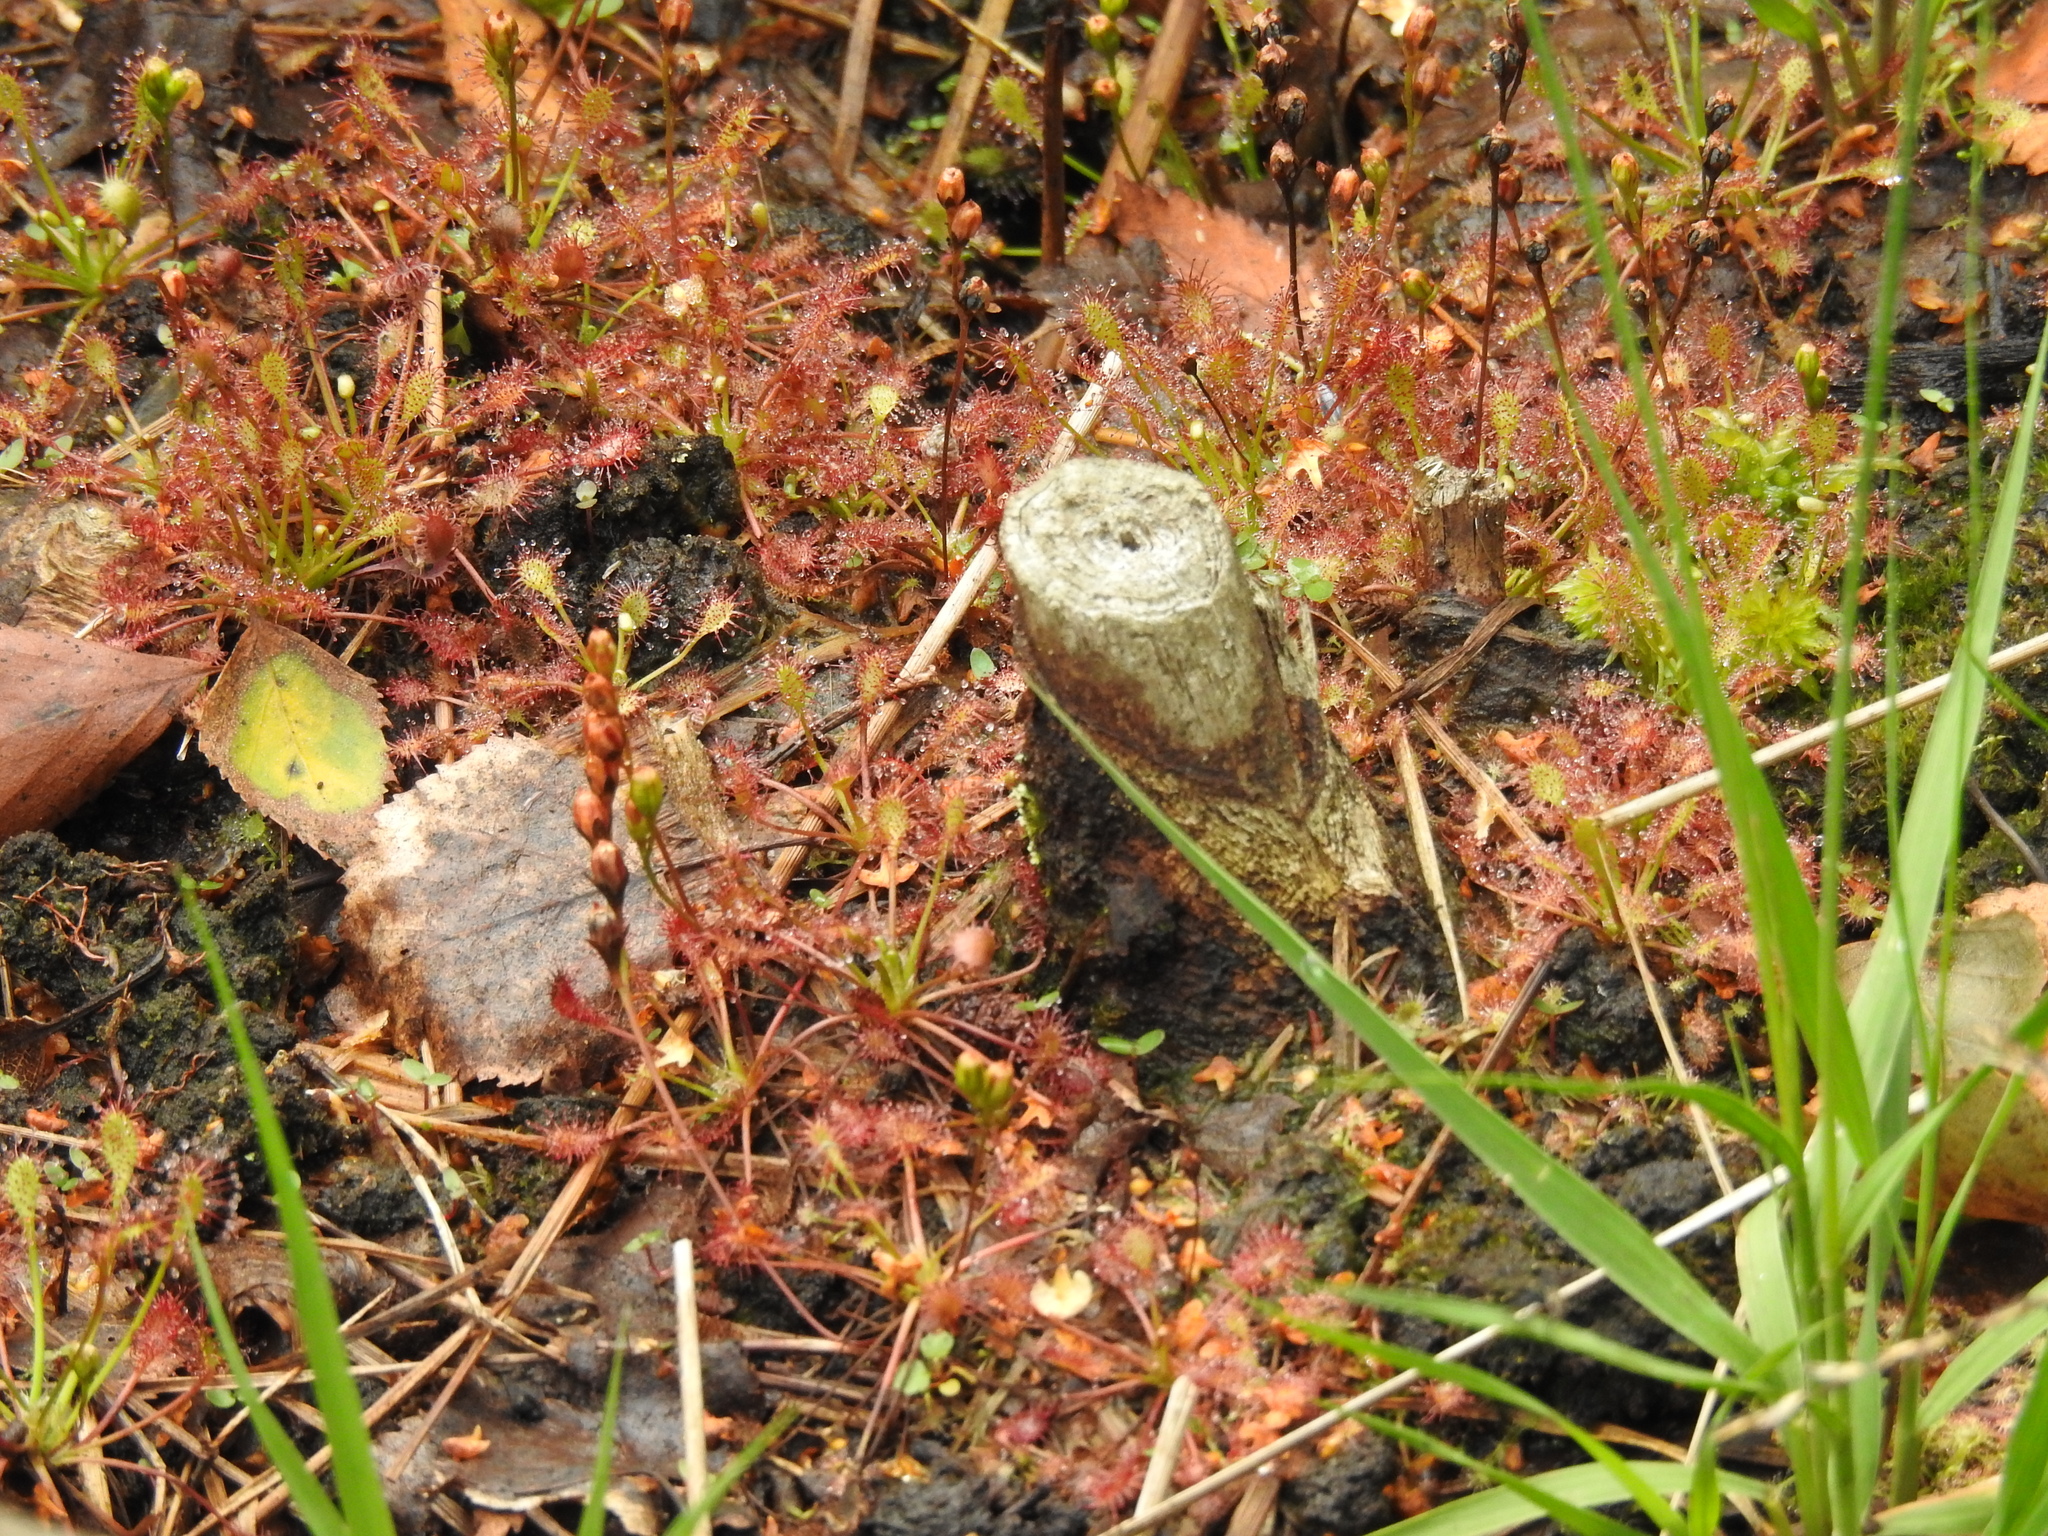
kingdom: Plantae
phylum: Tracheophyta
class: Magnoliopsida
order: Caryophyllales
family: Droseraceae
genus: Drosera
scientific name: Drosera intermedia
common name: Oblong-leaved sundew
